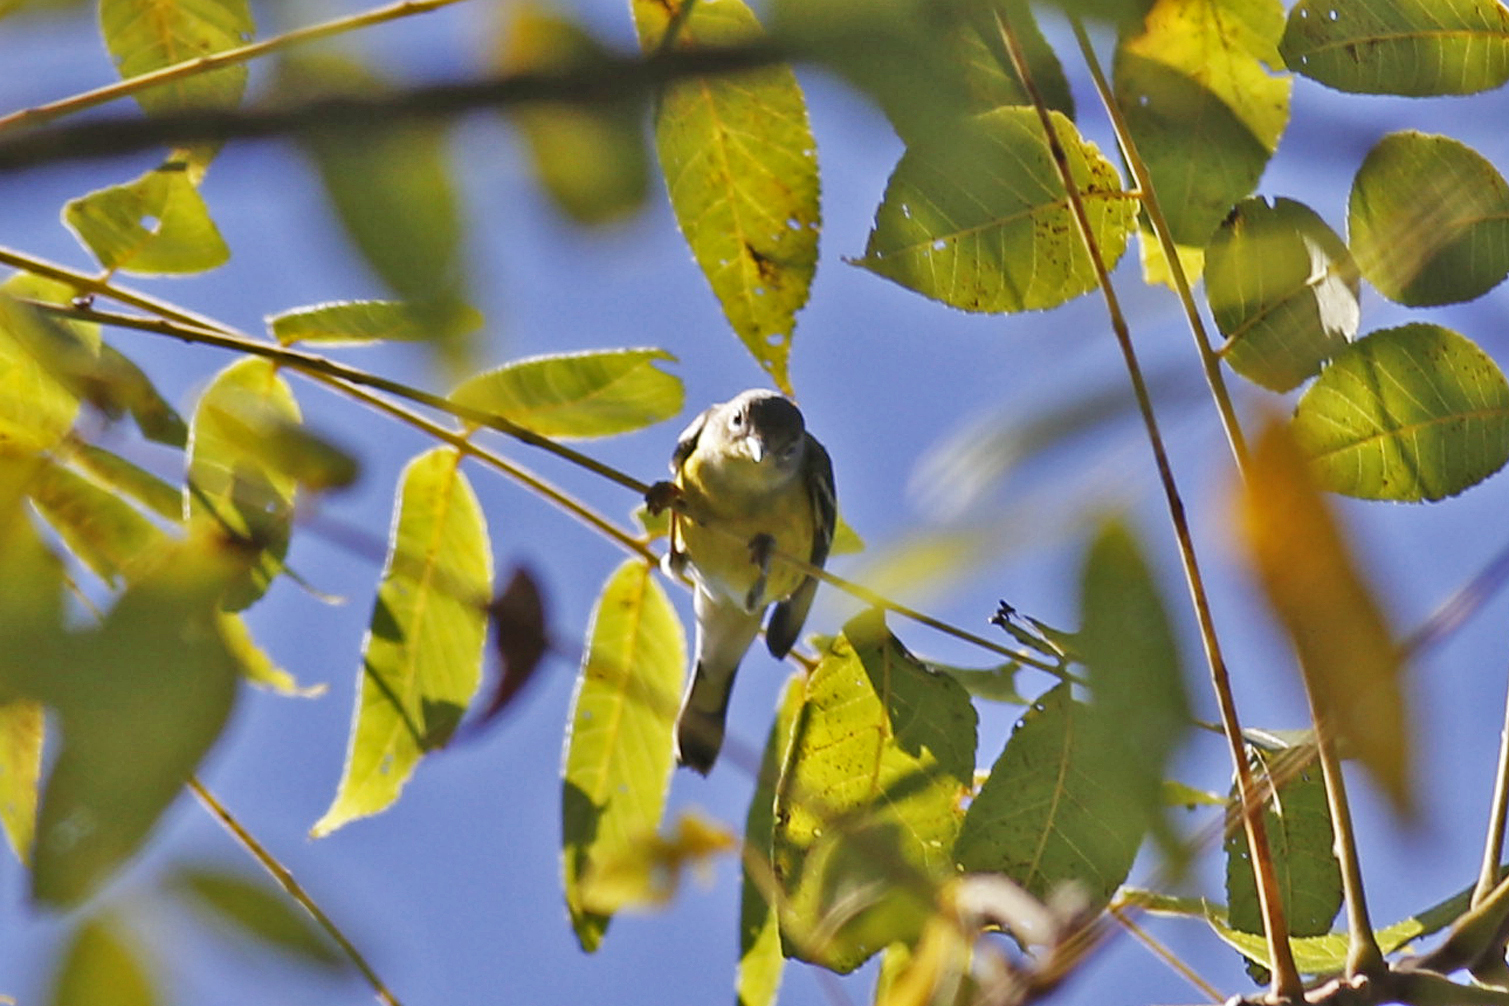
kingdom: Animalia
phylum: Chordata
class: Aves
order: Passeriformes
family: Parulidae
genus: Setophaga
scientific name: Setophaga magnolia
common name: Magnolia warbler
